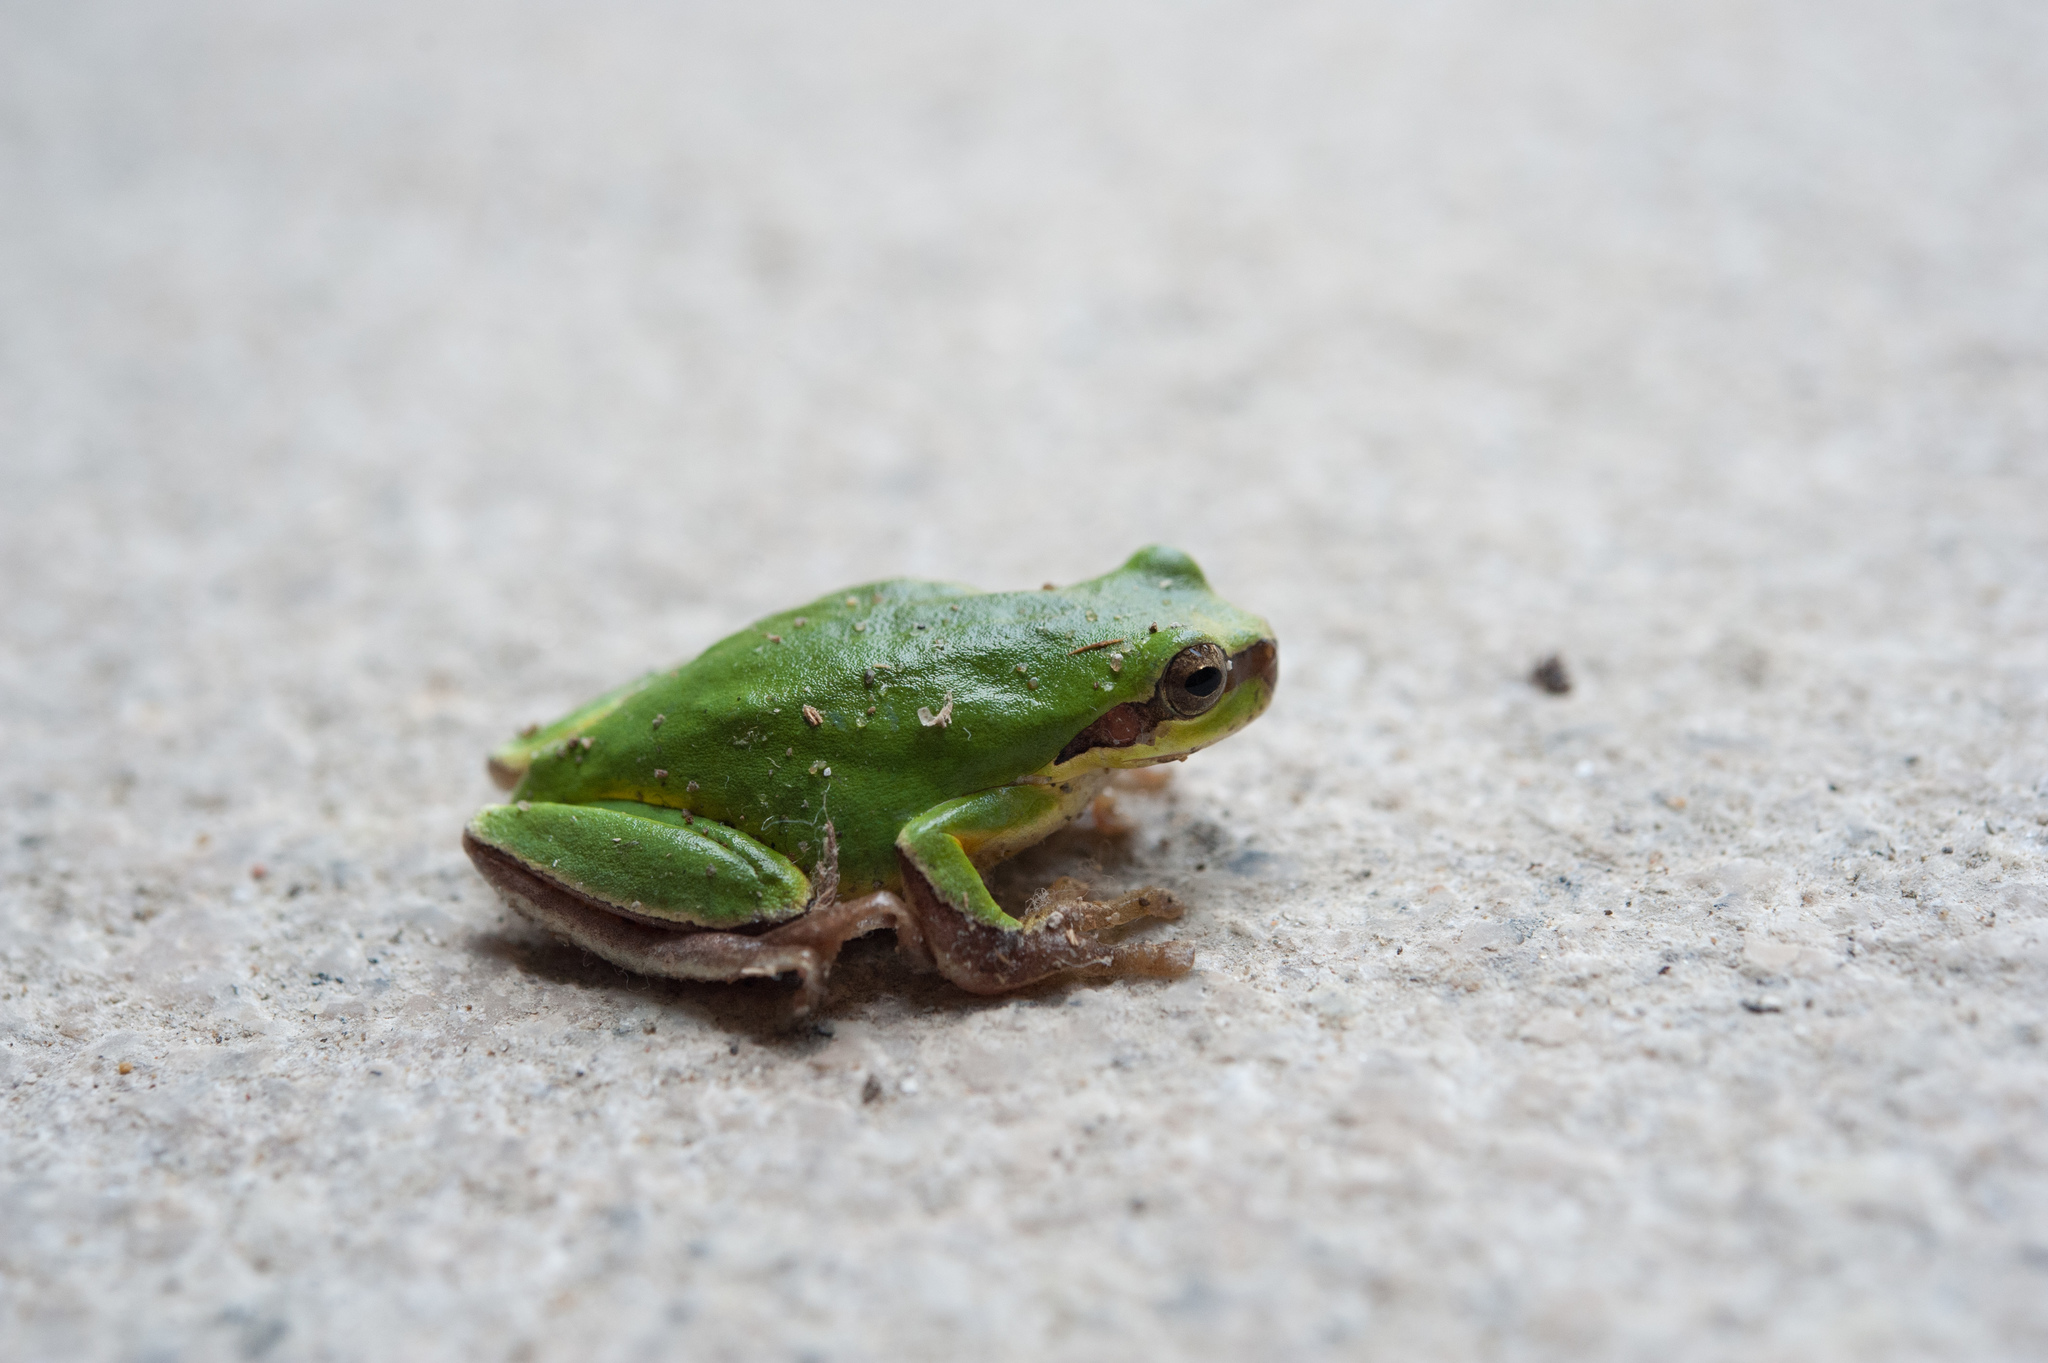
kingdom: Animalia
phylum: Chordata
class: Amphibia
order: Anura
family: Hylidae
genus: Hyla
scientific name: Hyla chinensis
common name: Common chinese treefrog
